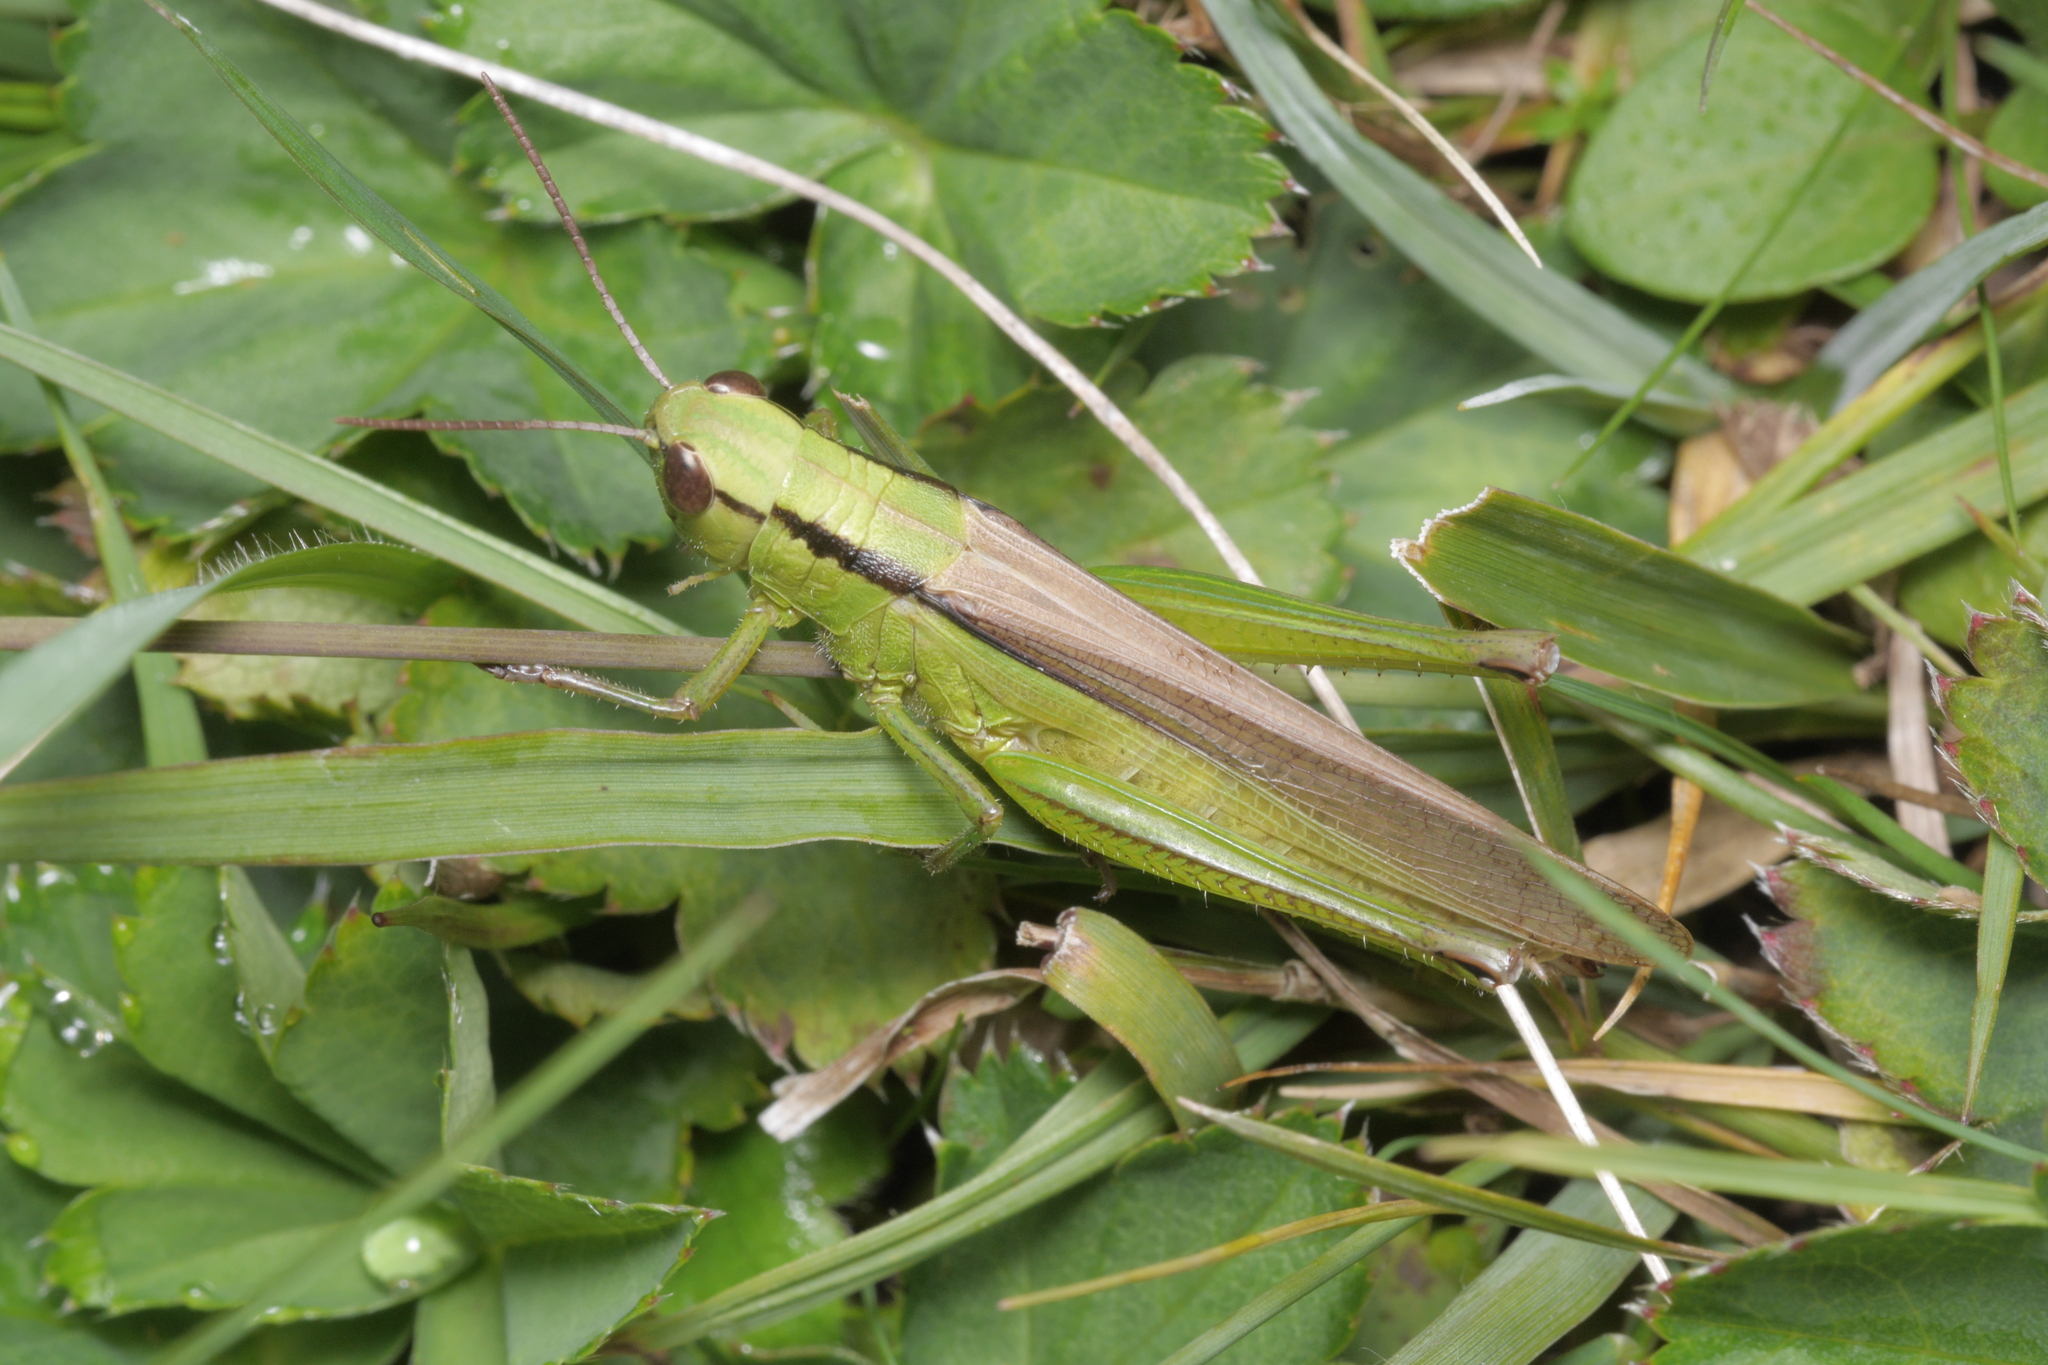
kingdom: Animalia
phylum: Arthropoda
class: Insecta
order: Orthoptera
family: Acrididae
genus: Mecostethus
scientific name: Mecostethus parapleurus
